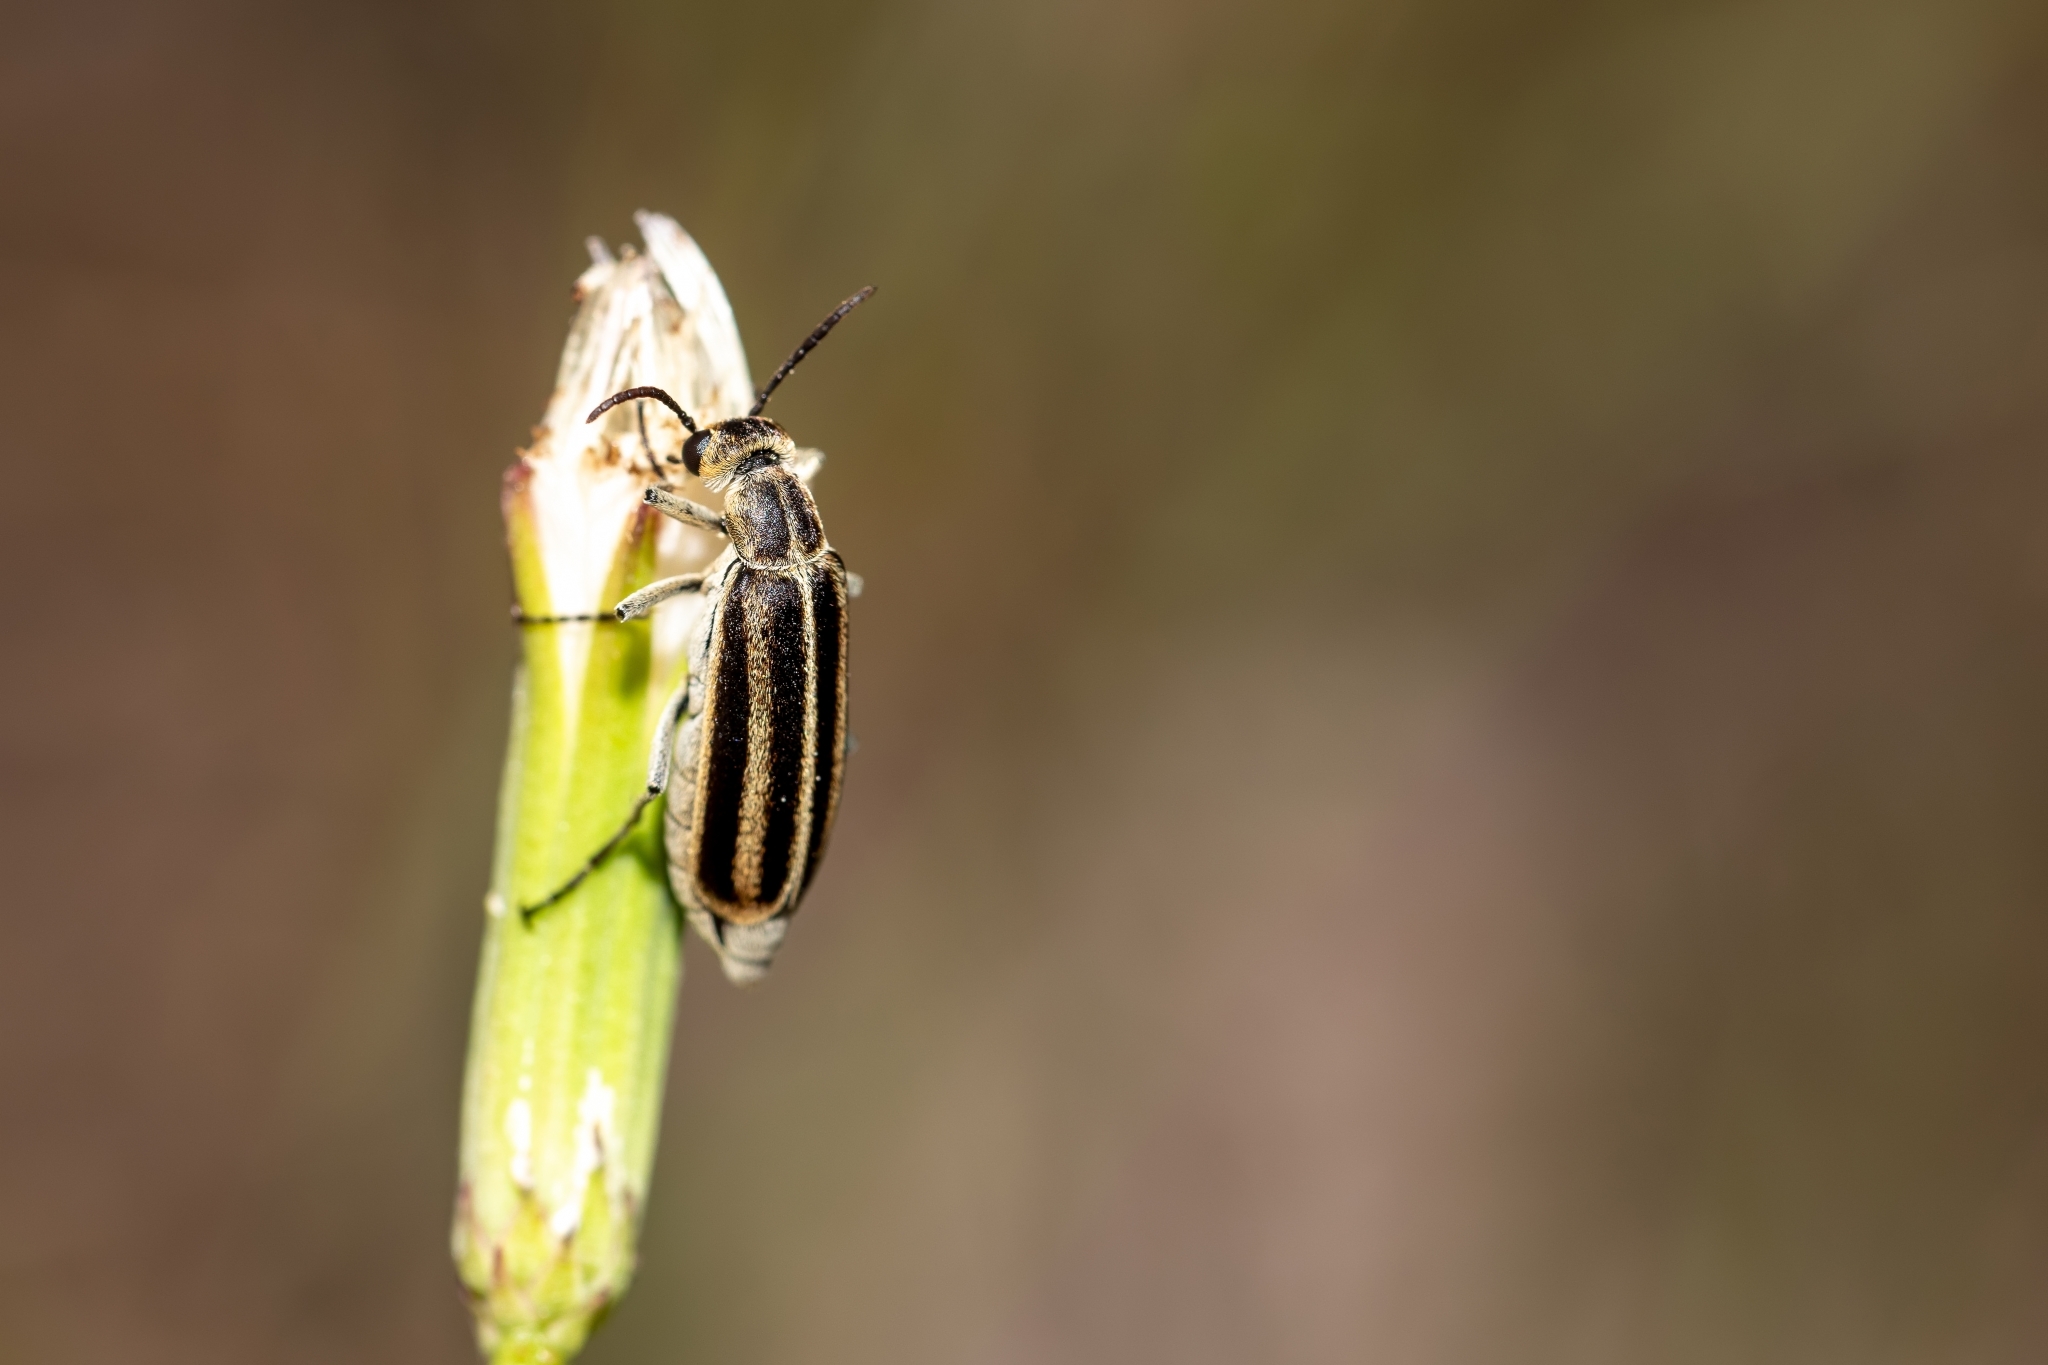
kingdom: Animalia
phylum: Arthropoda
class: Insecta
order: Coleoptera
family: Meloidae
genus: Epicauta
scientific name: Epicauta strigosa
